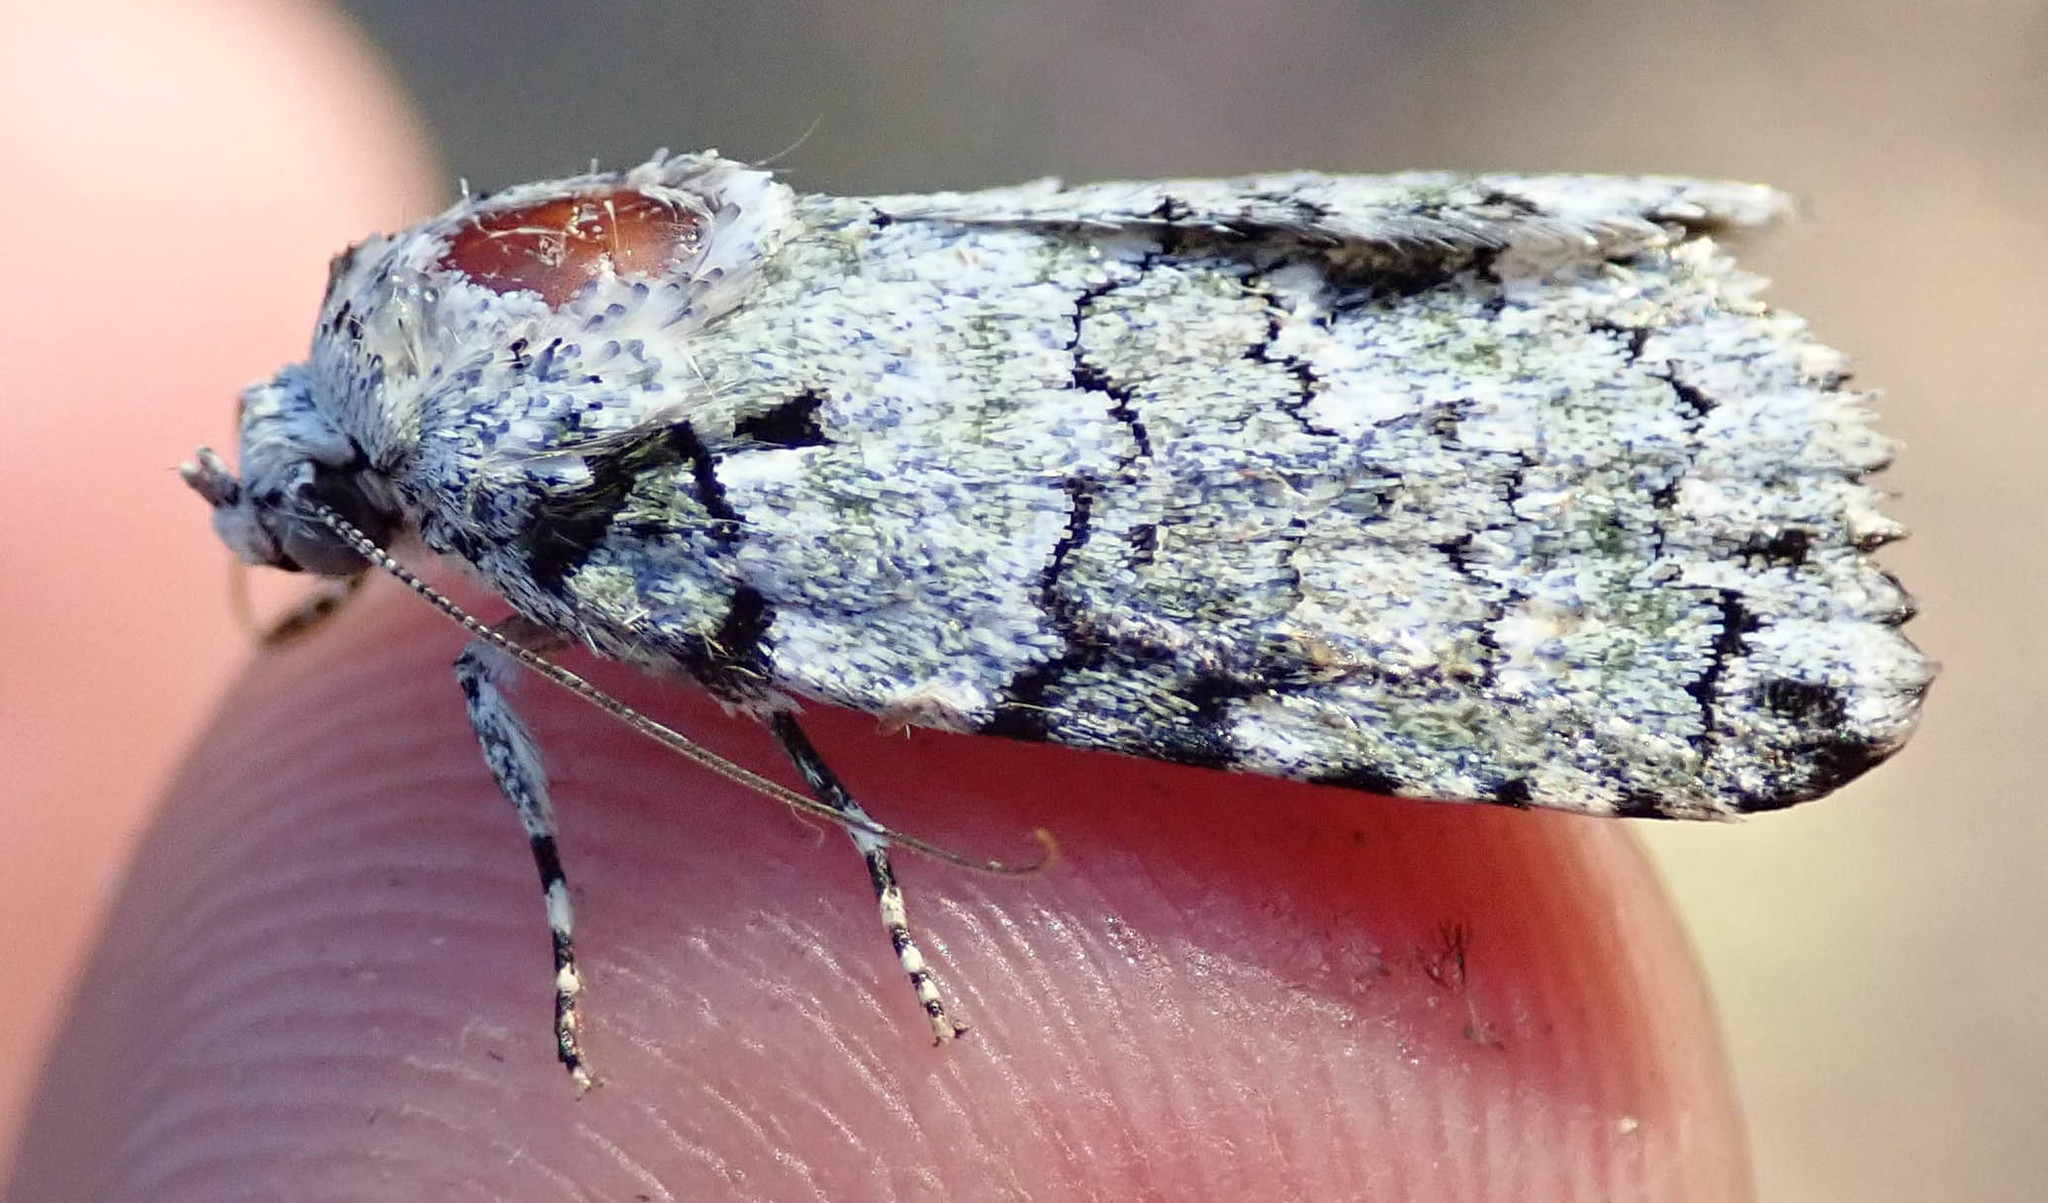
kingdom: Animalia
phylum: Arthropoda
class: Insecta
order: Lepidoptera
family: Nolidae
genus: Blenina
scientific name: Blenina squamifera
